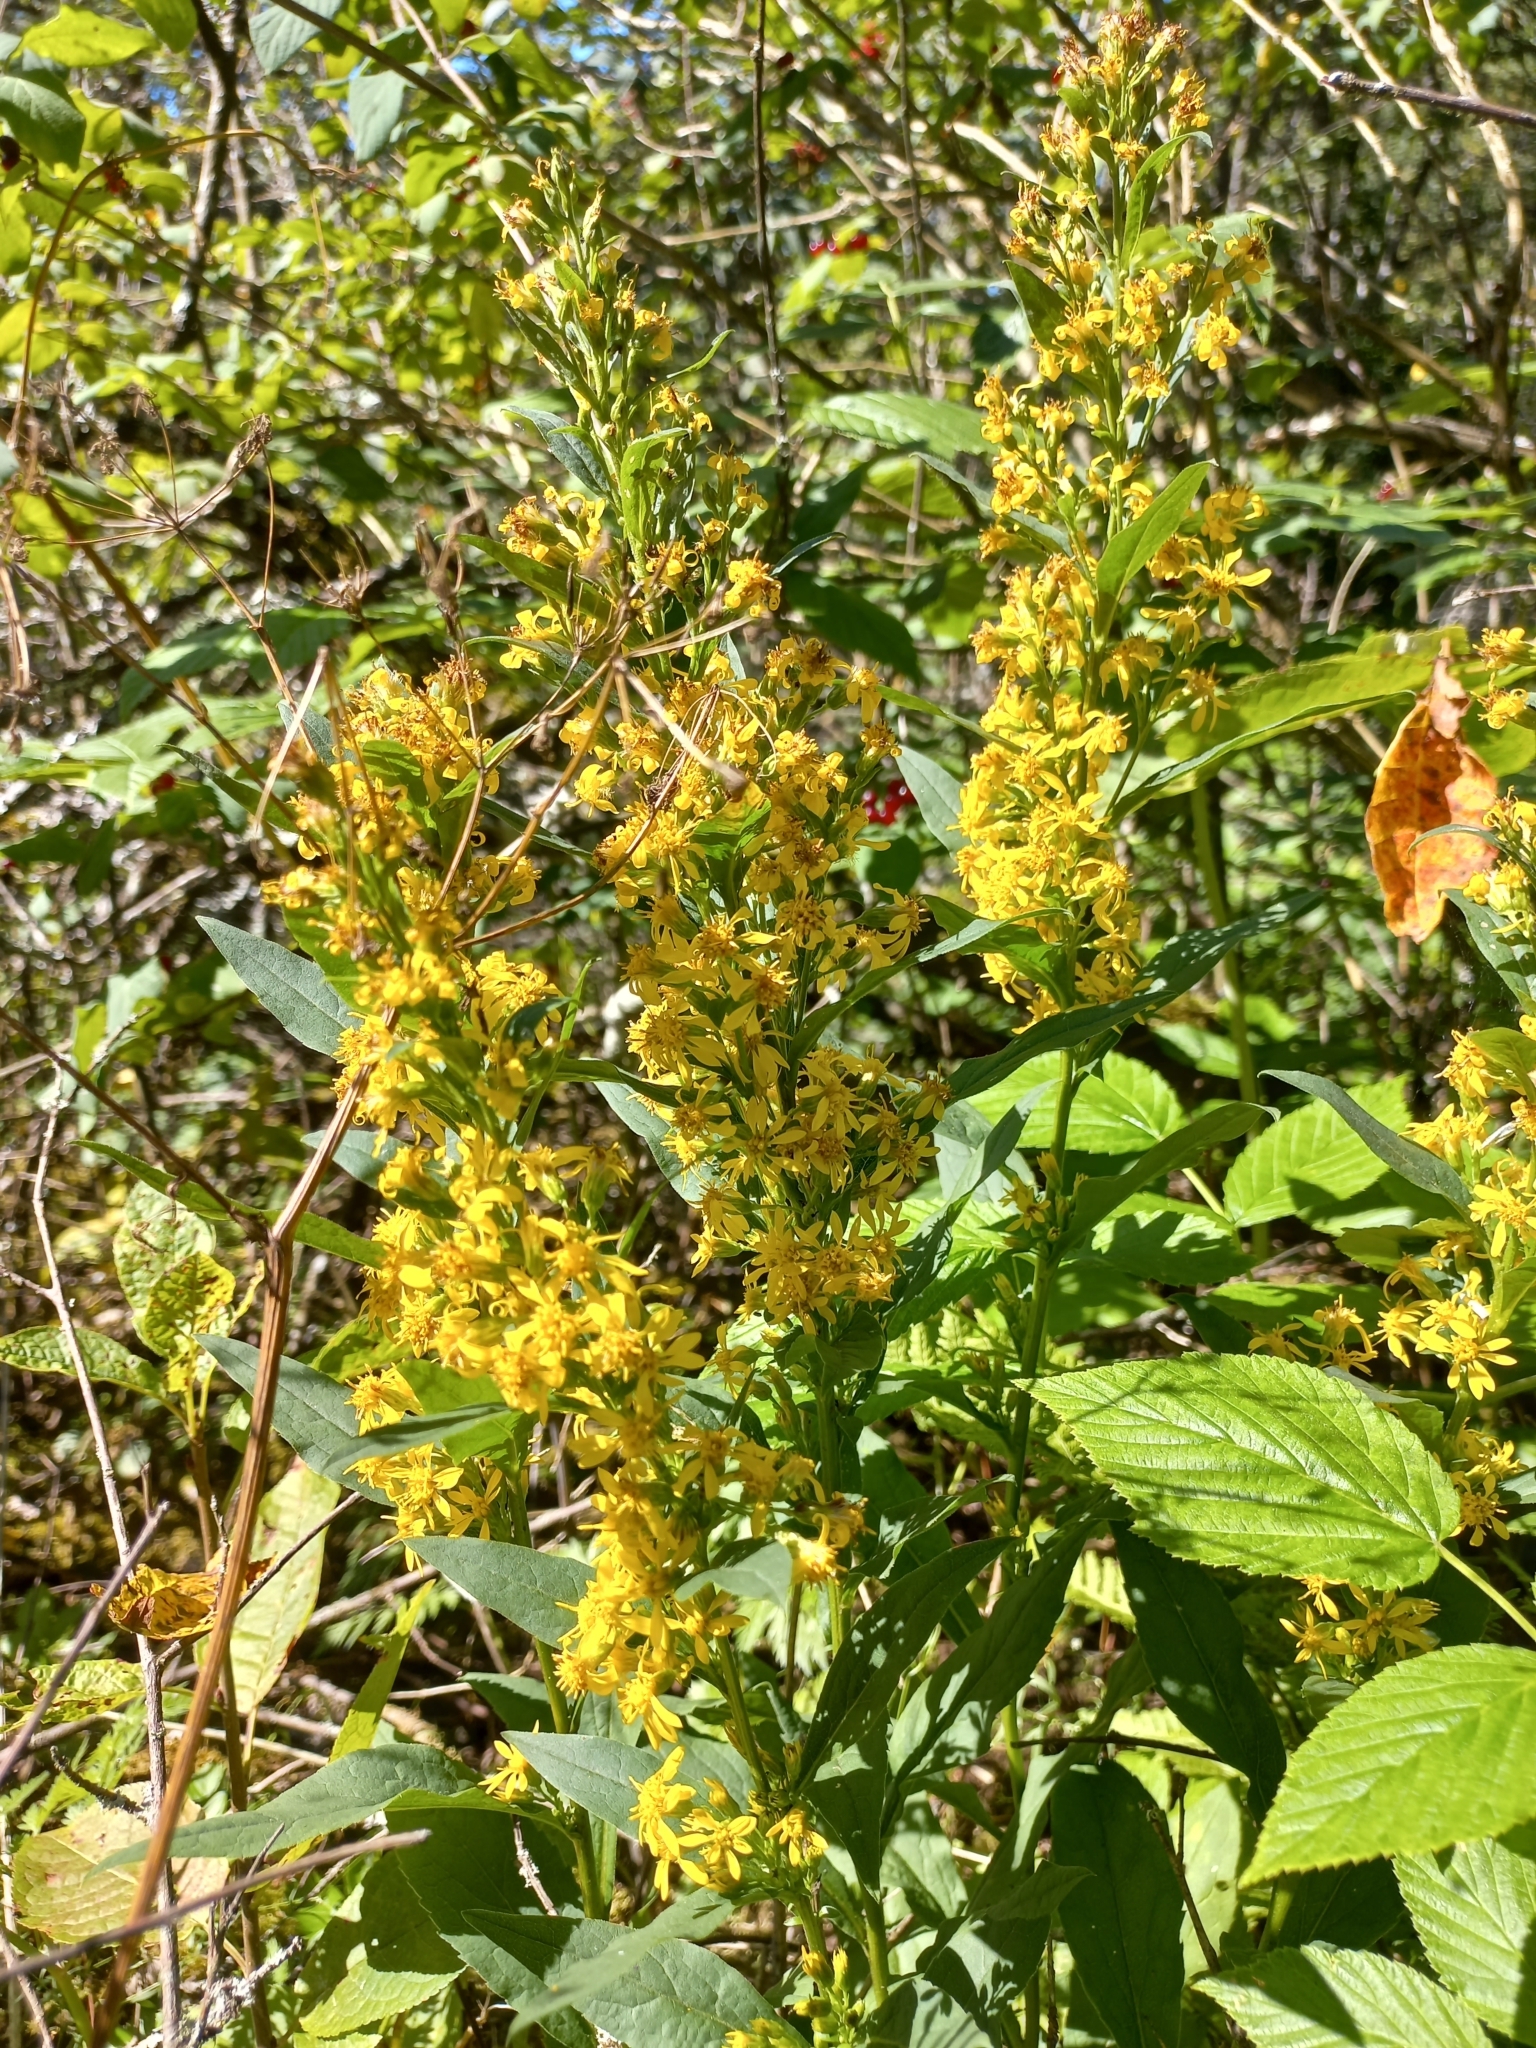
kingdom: Plantae
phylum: Tracheophyta
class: Magnoliopsida
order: Asterales
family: Asteraceae
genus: Solidago
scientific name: Solidago virgaurea
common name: Goldenrod
